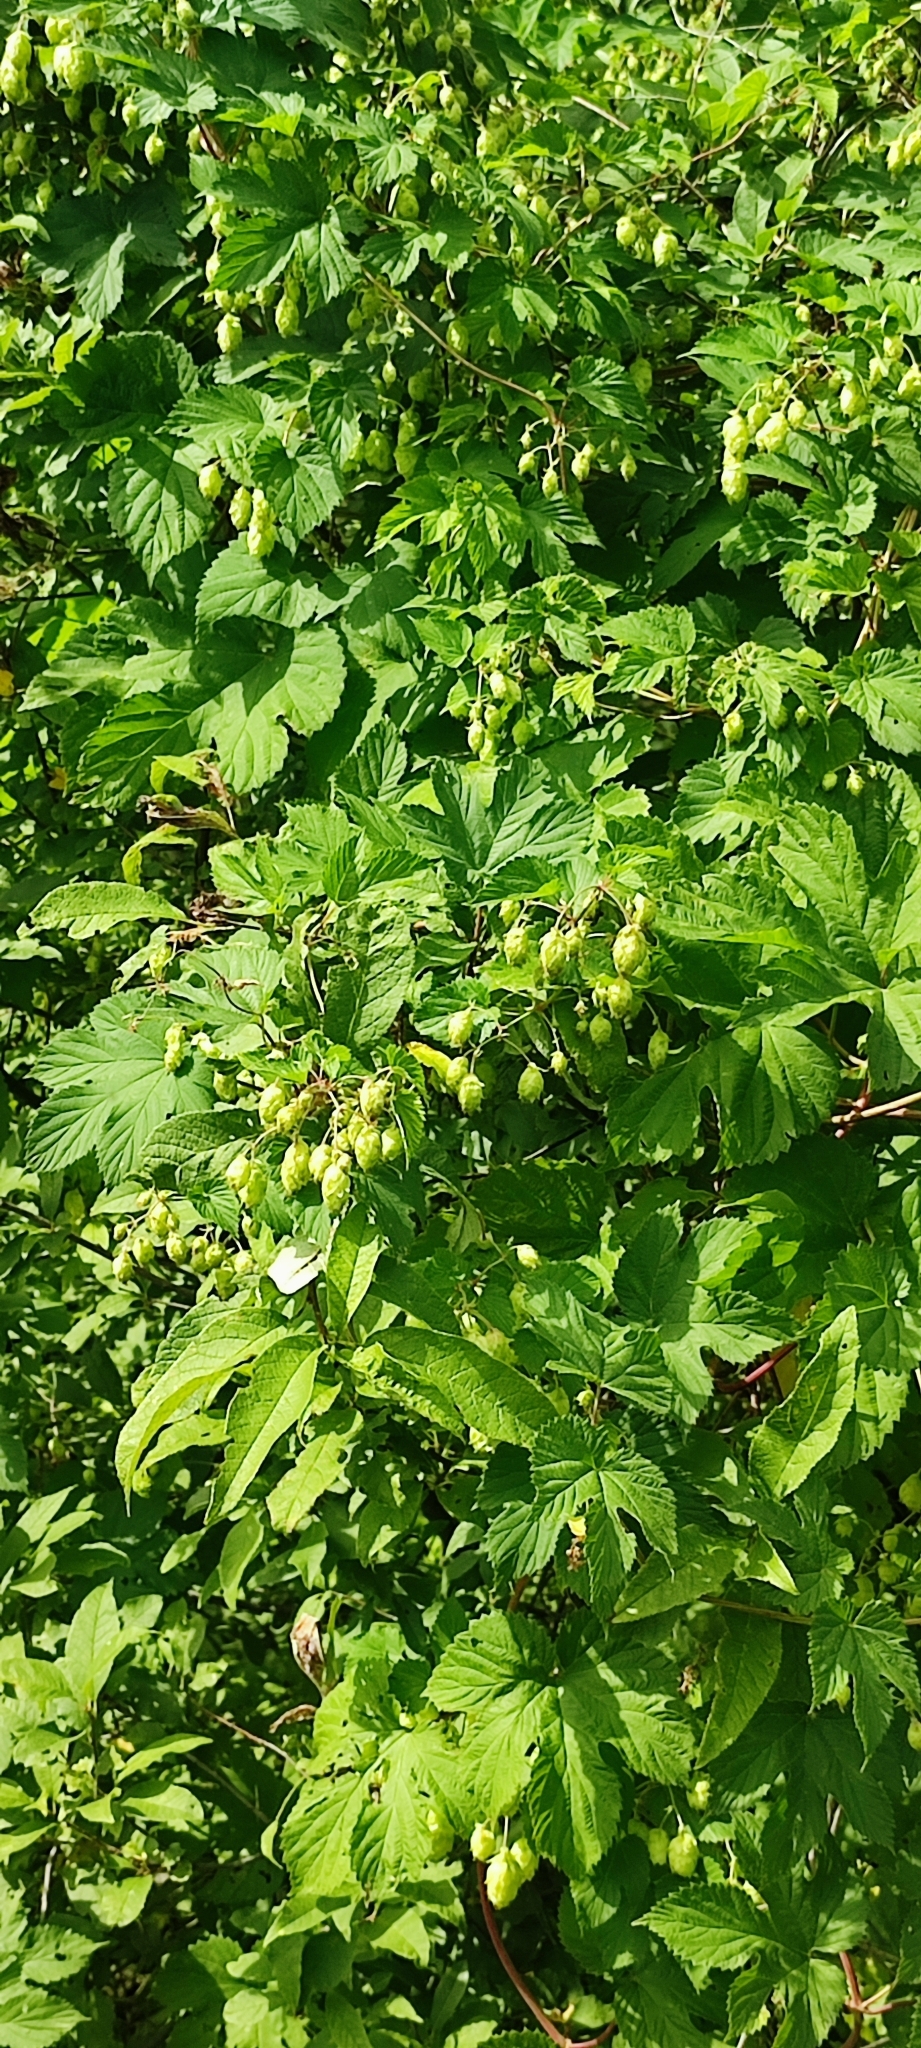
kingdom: Plantae
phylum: Tracheophyta
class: Magnoliopsida
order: Rosales
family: Cannabaceae
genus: Humulus
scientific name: Humulus lupulus
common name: Hop
